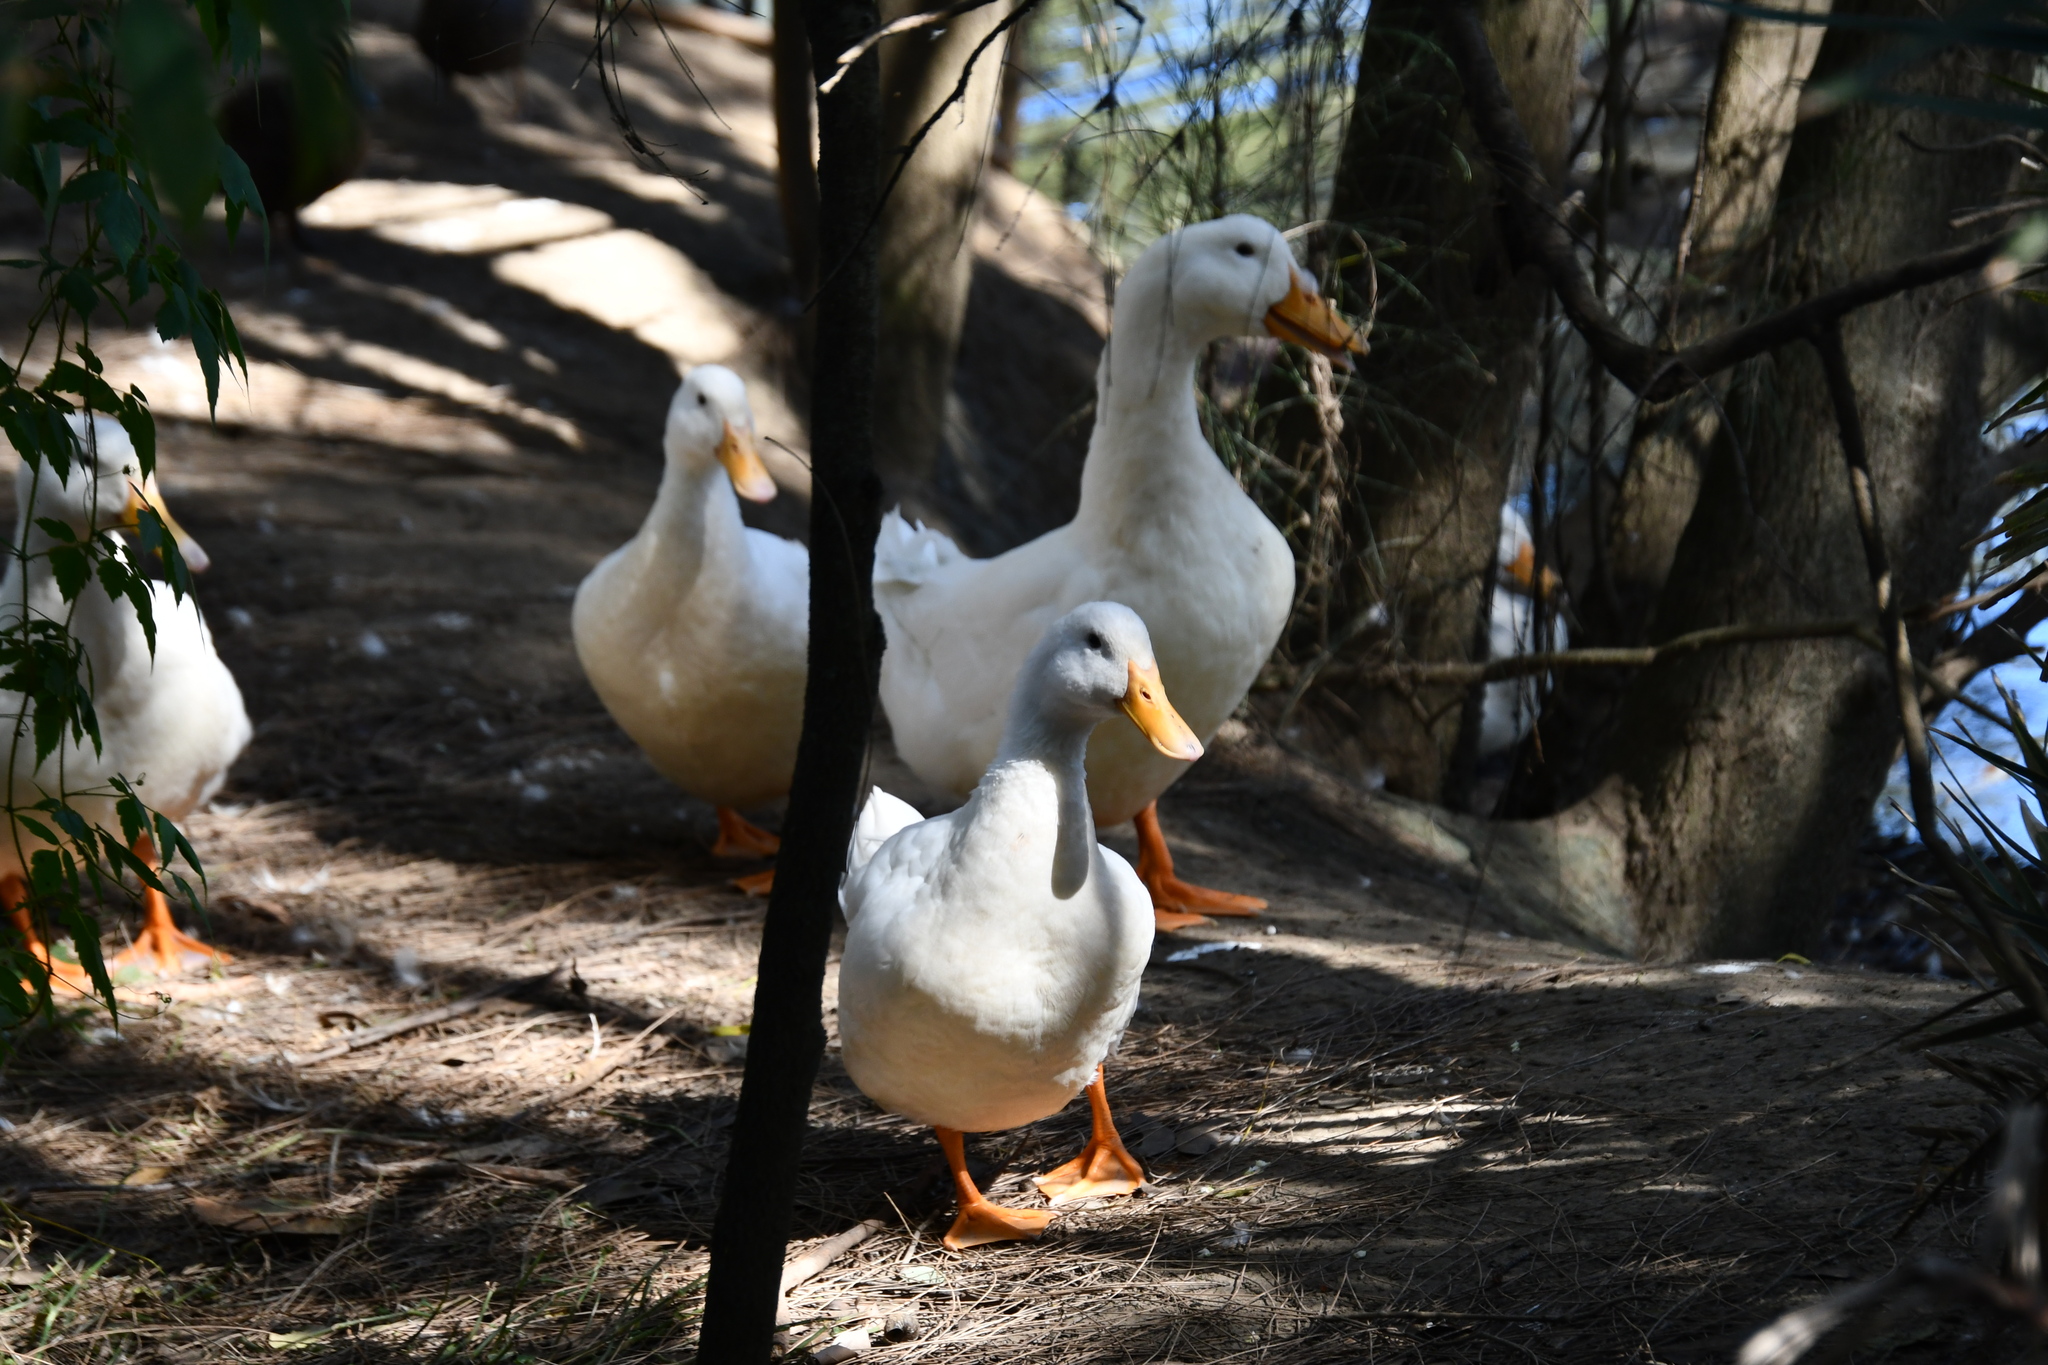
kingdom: Animalia
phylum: Chordata
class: Aves
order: Anseriformes
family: Anatidae
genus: Anas
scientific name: Anas platyrhynchos
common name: Mallard
